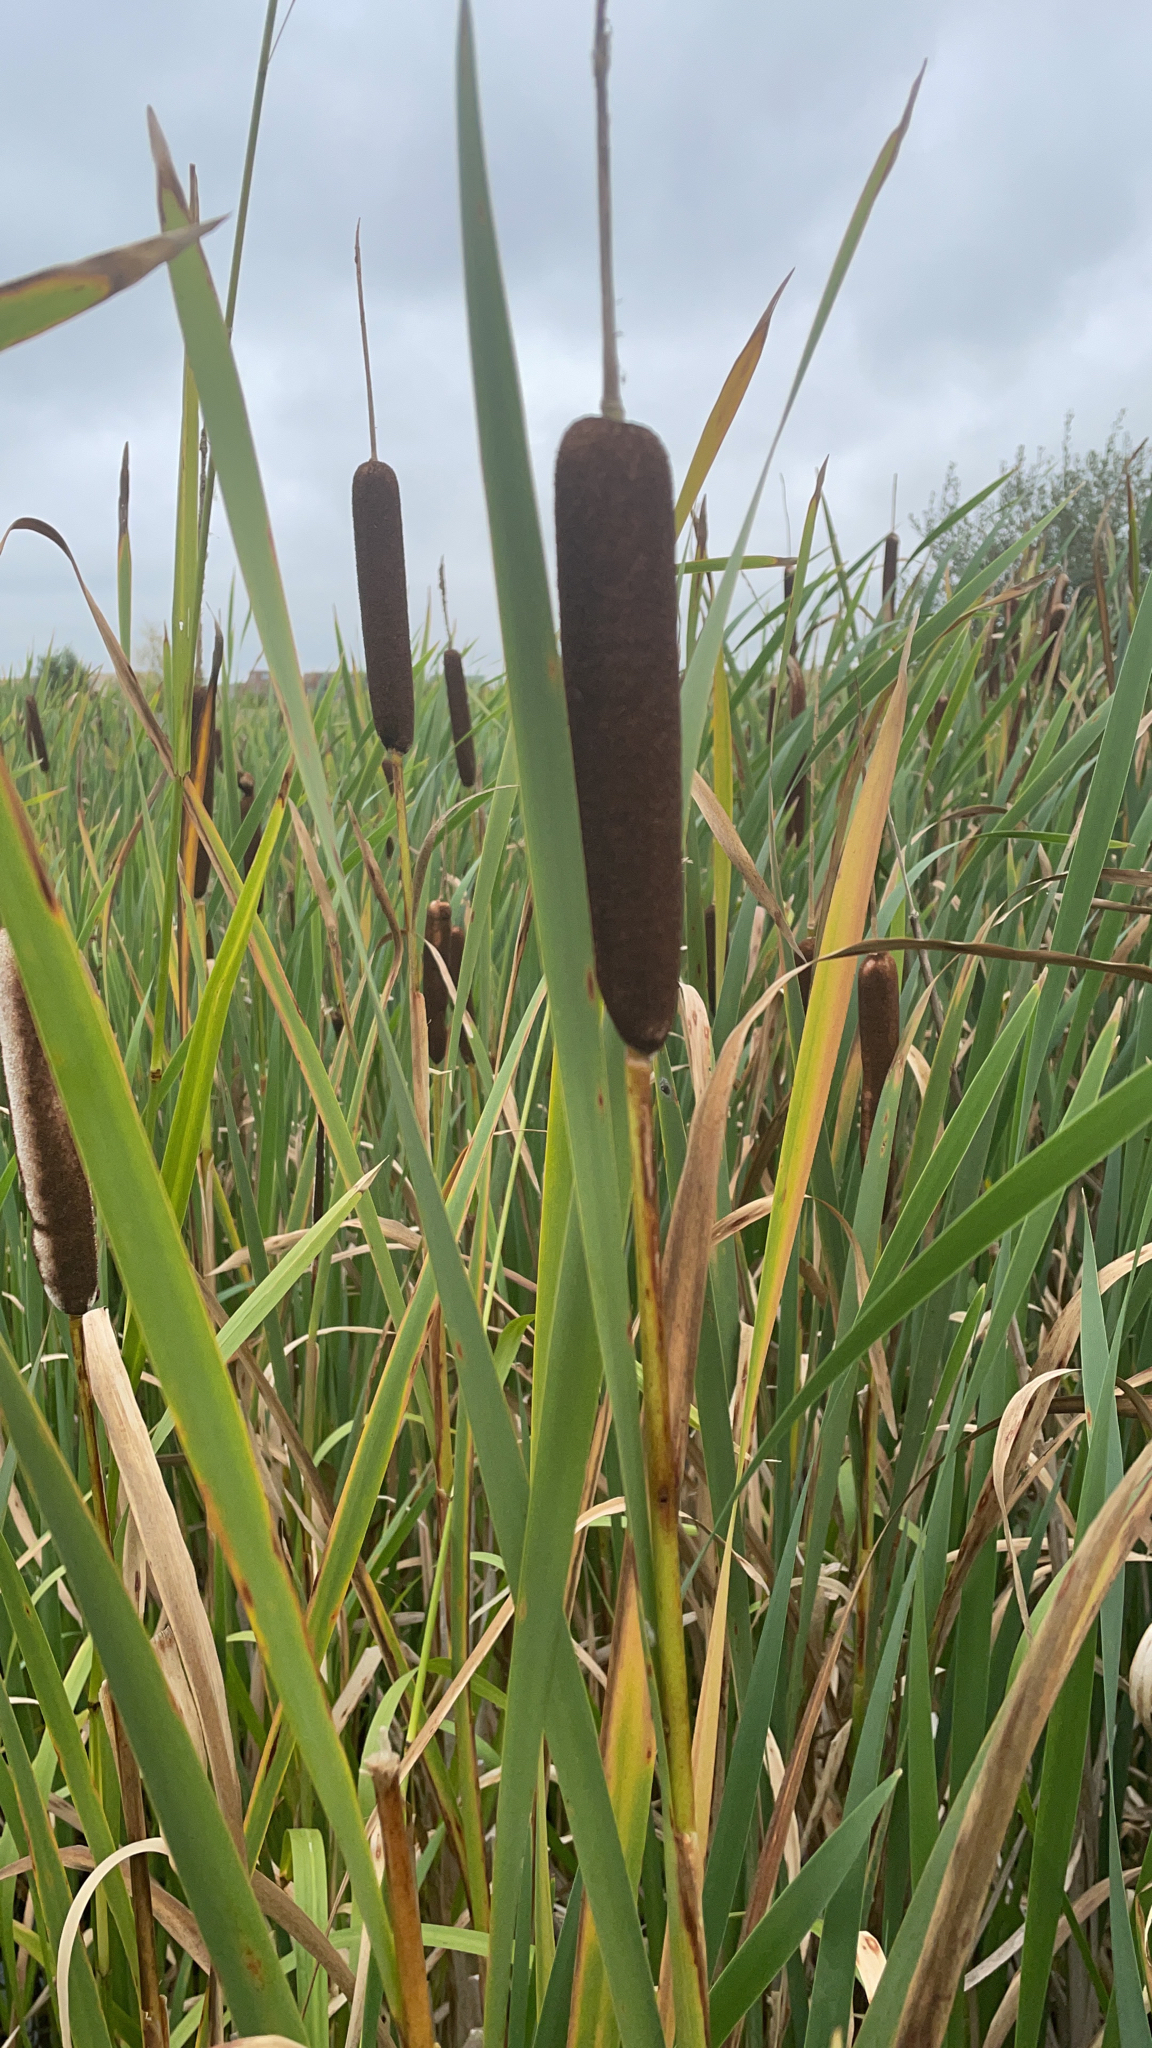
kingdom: Plantae
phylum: Tracheophyta
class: Liliopsida
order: Poales
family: Typhaceae
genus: Typha
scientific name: Typha latifolia
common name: Broadleaf cattail
